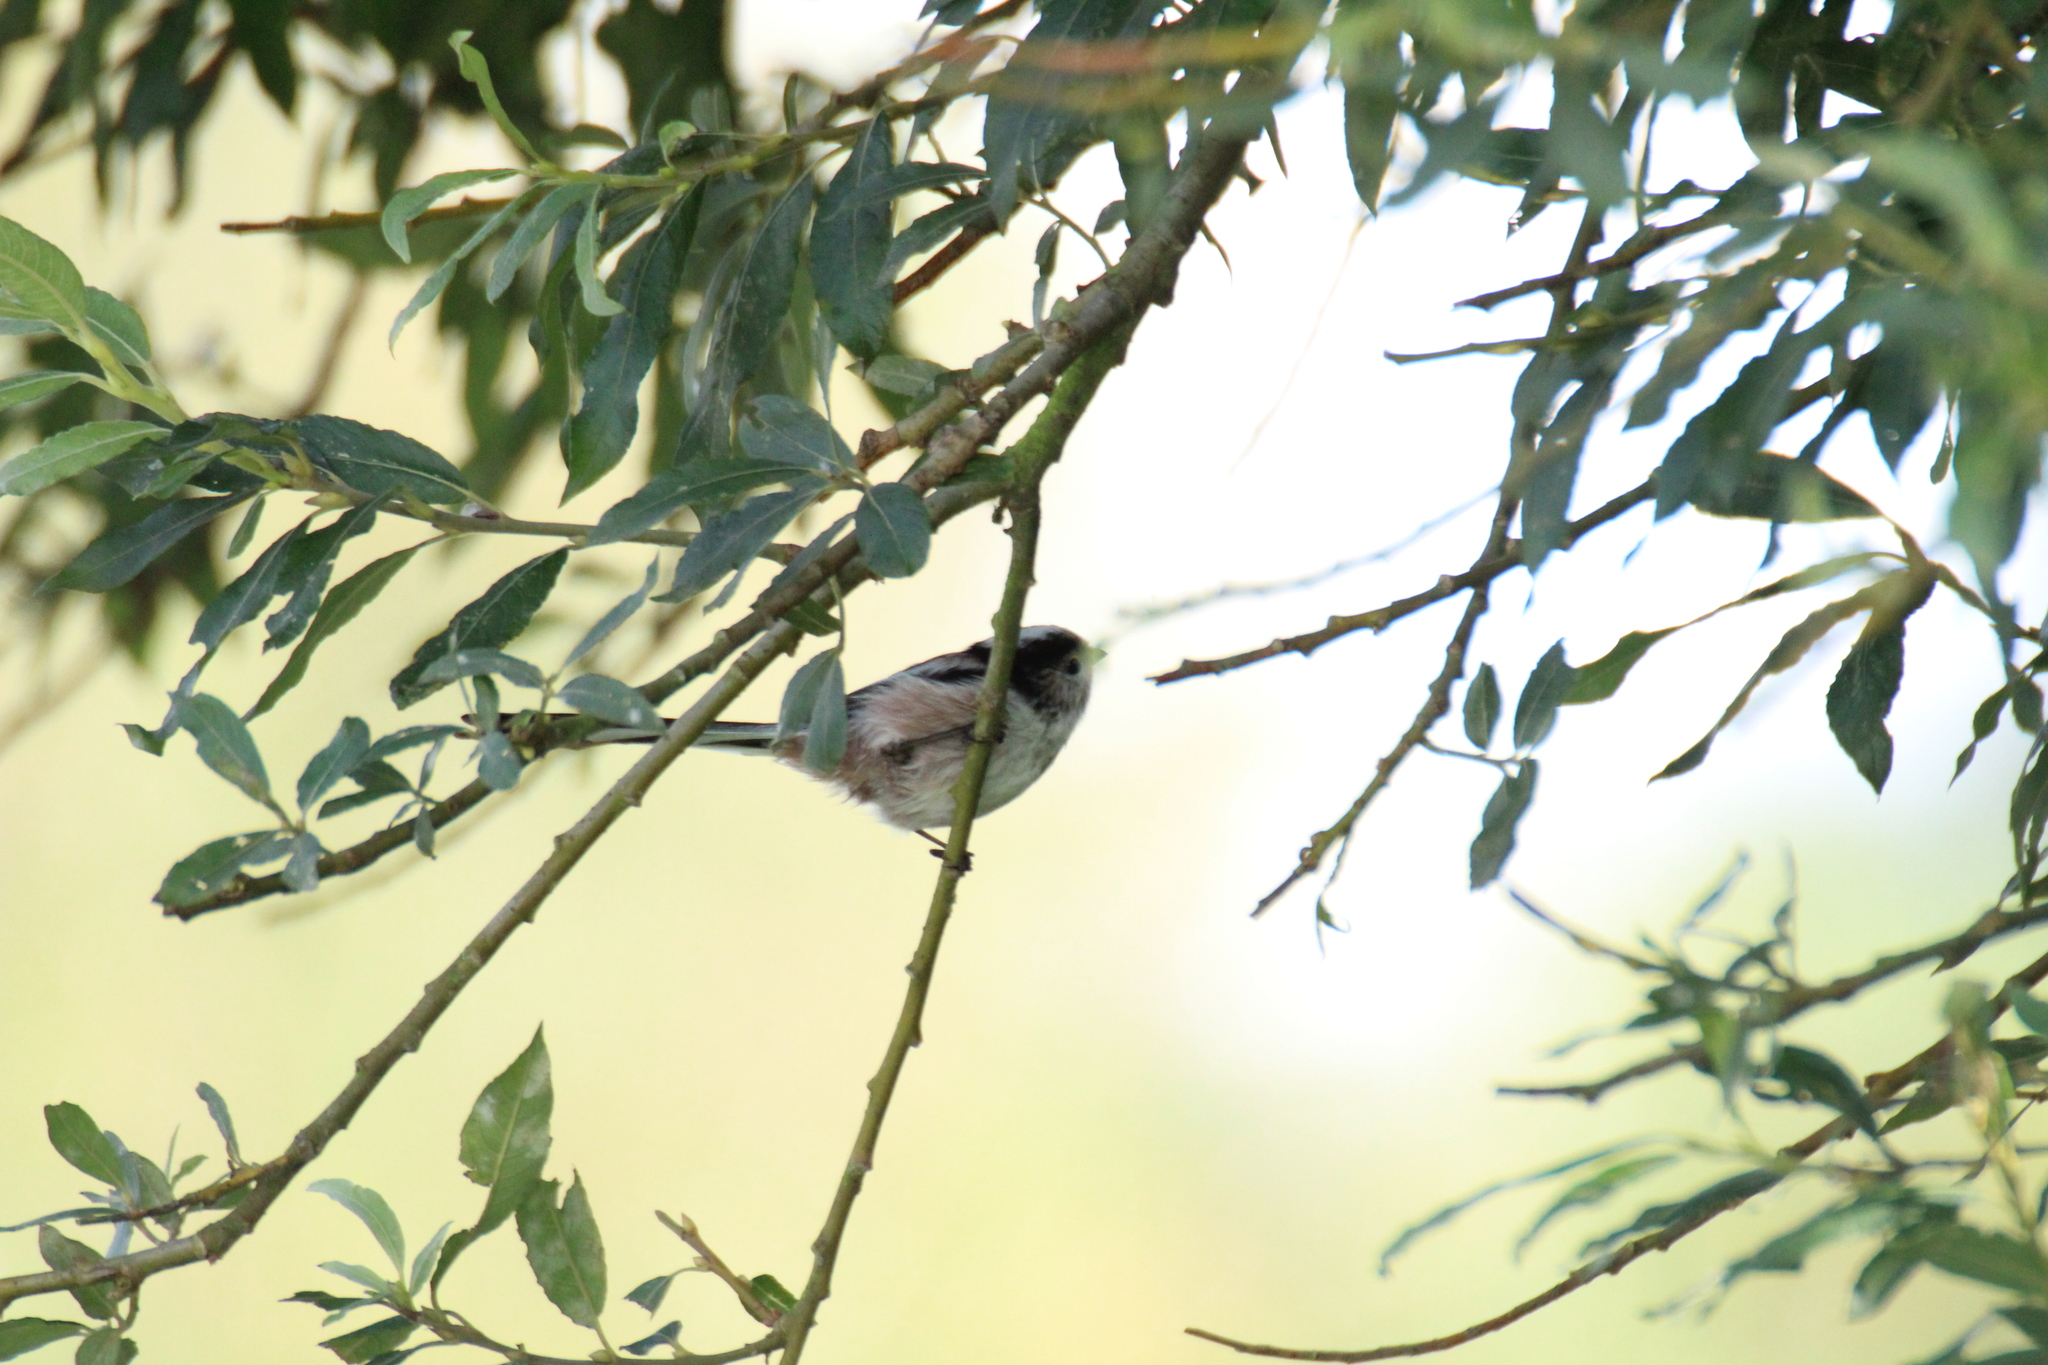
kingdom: Animalia
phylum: Chordata
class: Aves
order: Passeriformes
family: Aegithalidae
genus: Aegithalos
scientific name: Aegithalos caudatus
